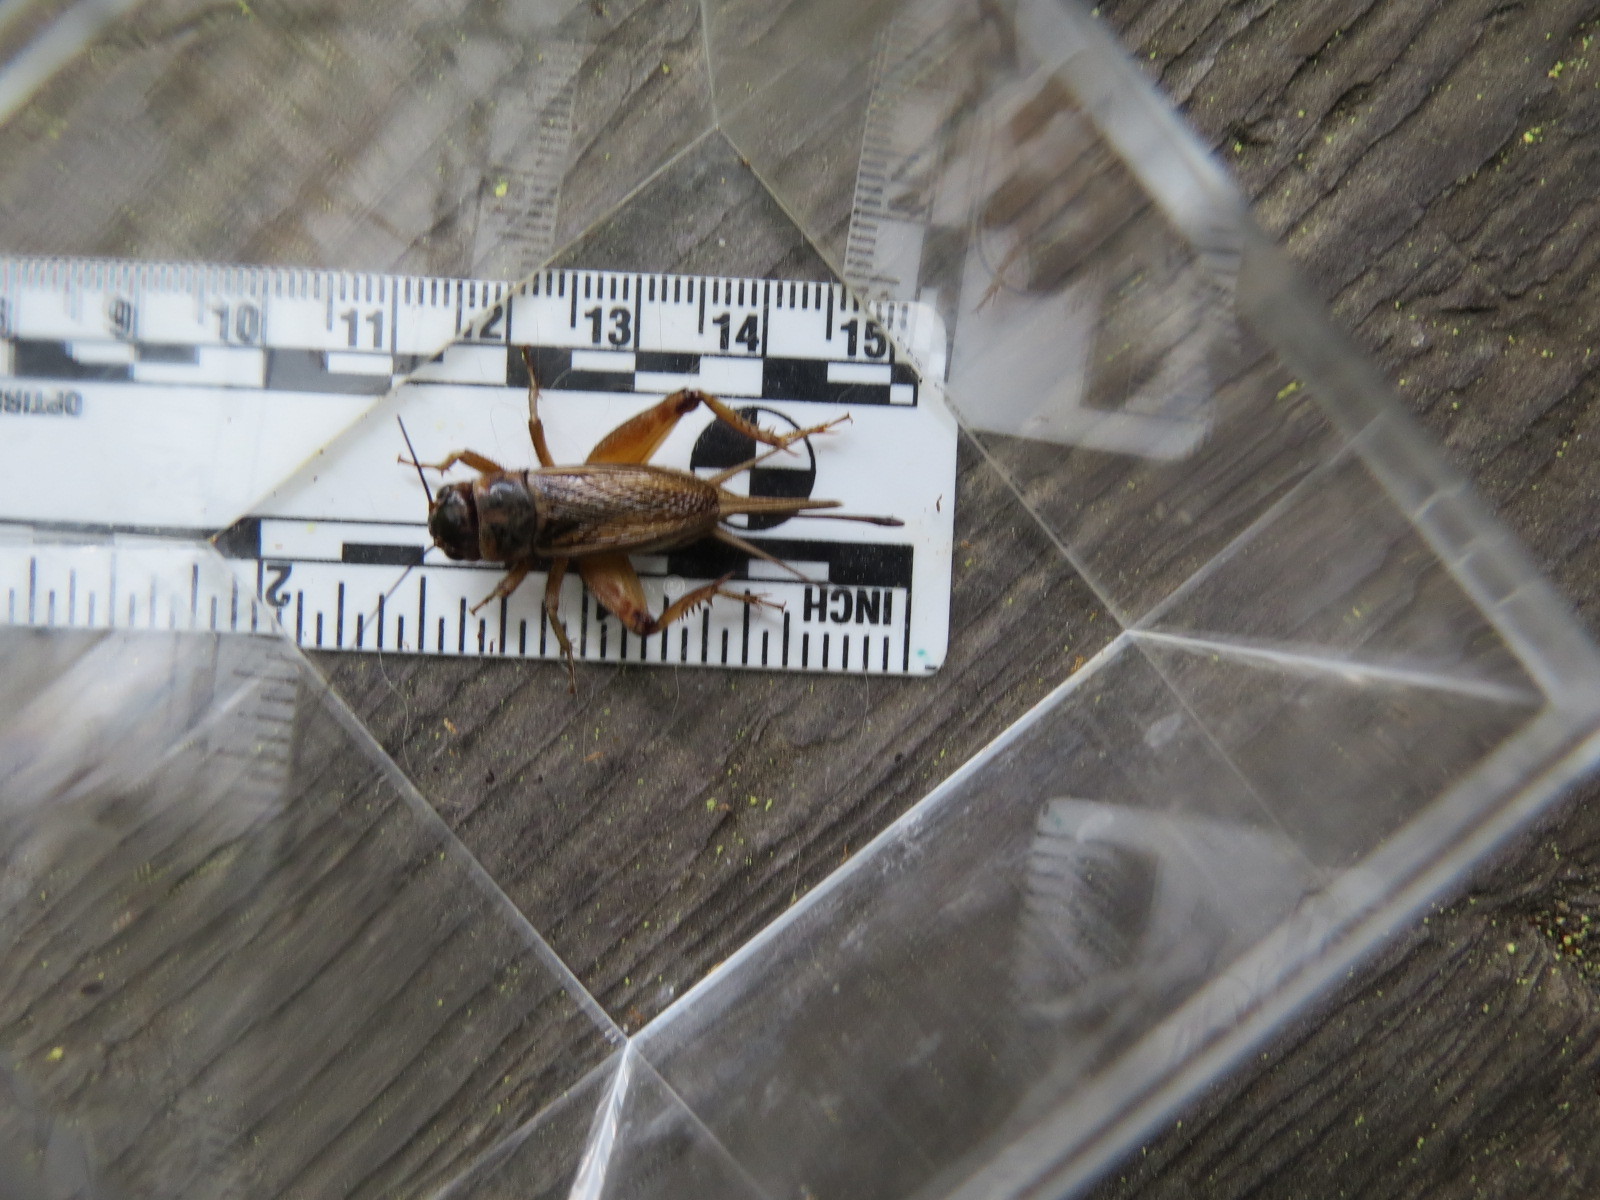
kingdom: Animalia
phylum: Arthropoda
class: Insecta
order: Orthoptera
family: Gryllidae
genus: Gryllus
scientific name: Gryllus lineaticeps
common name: Variable field cricket
